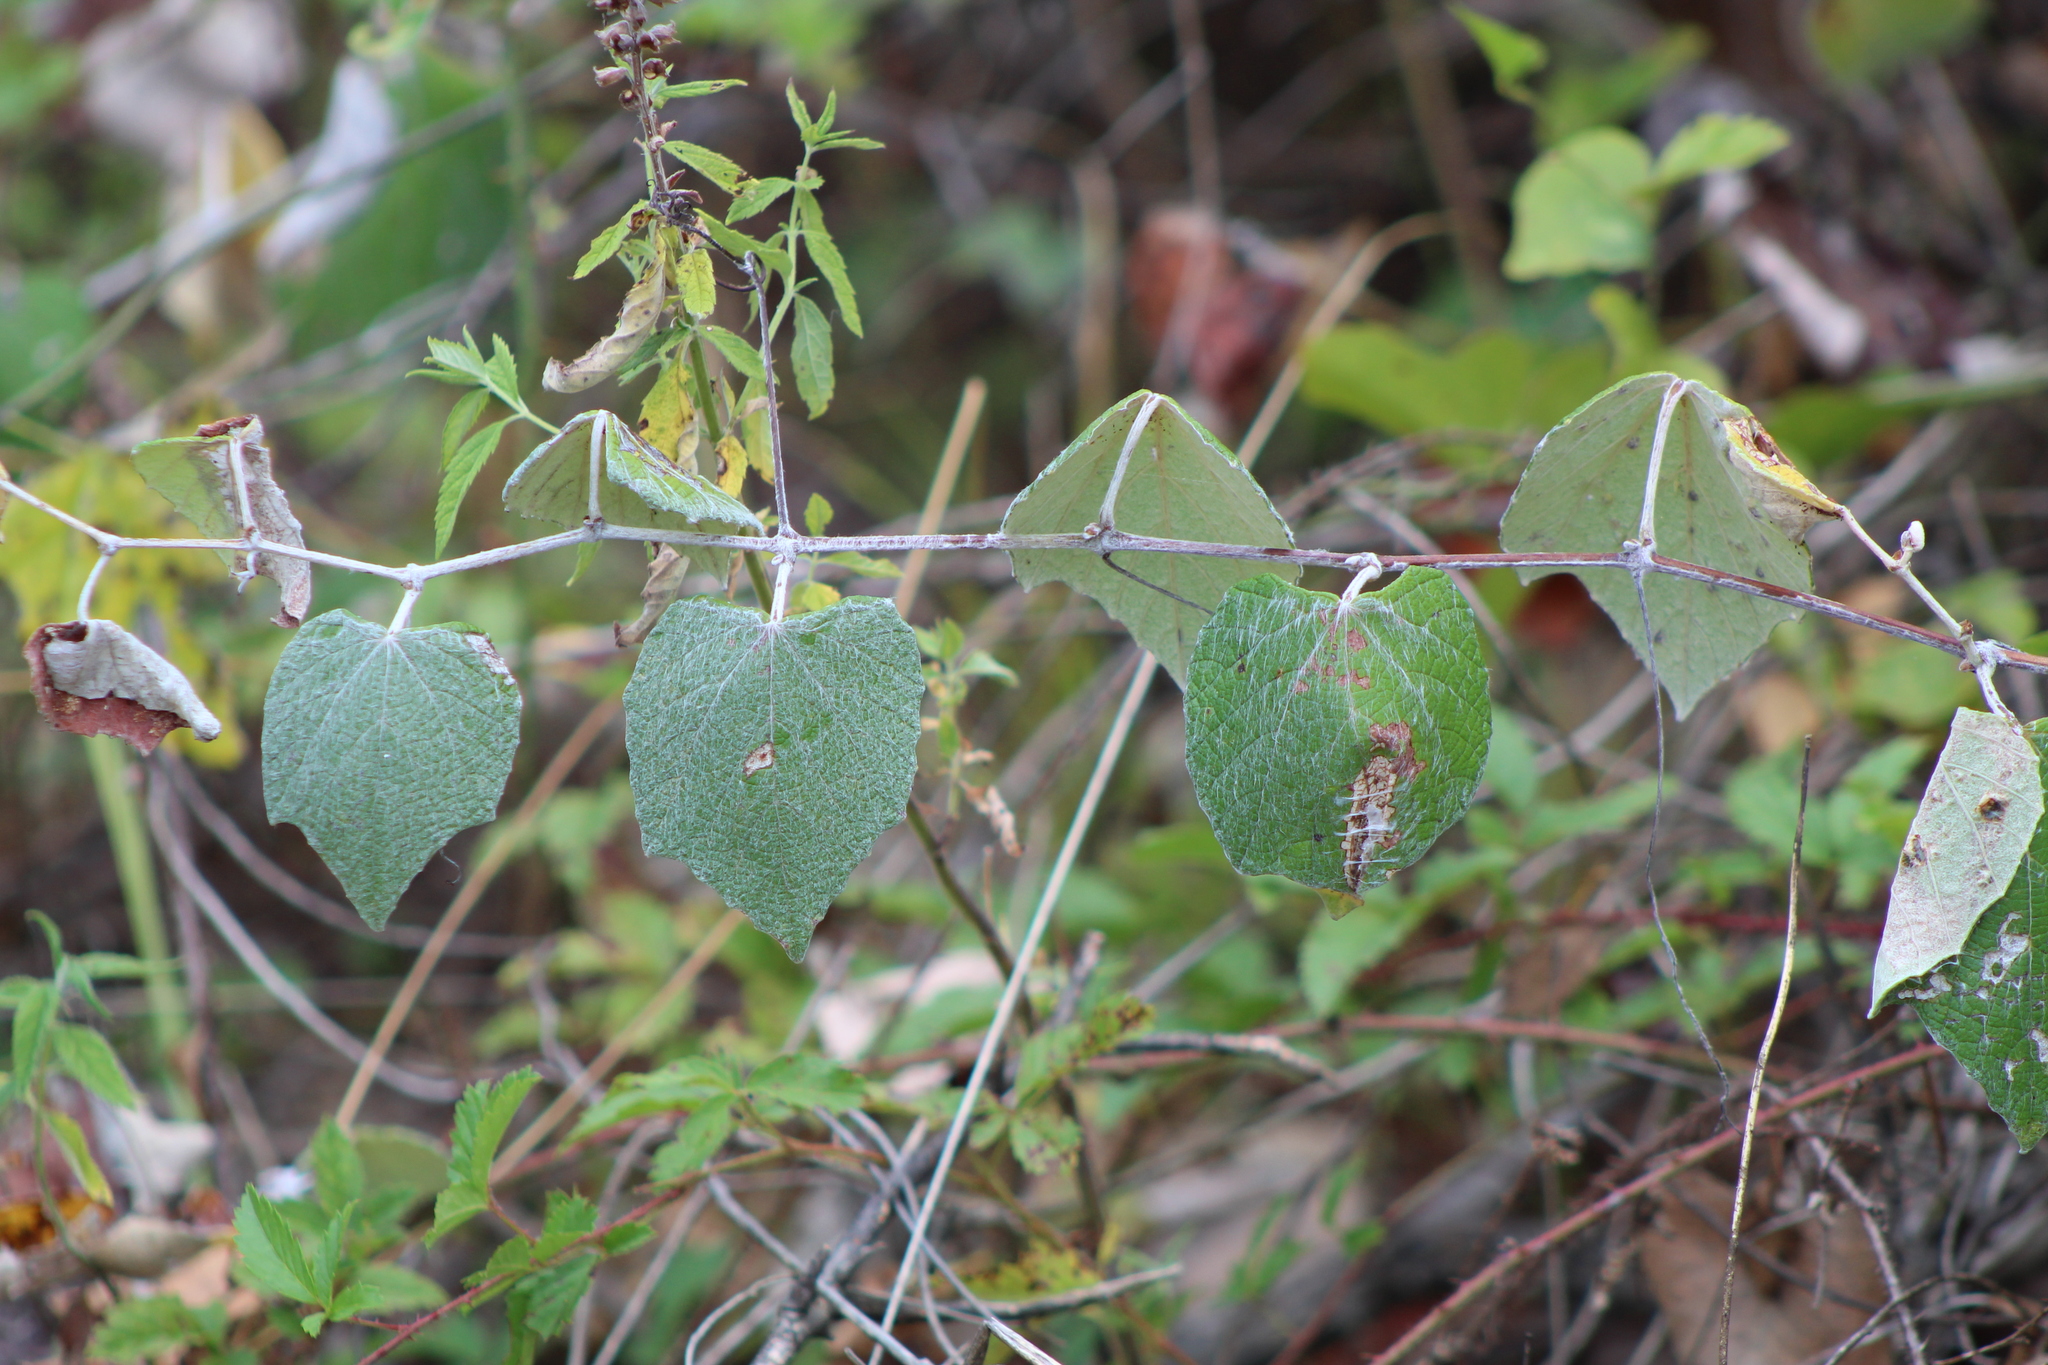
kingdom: Plantae
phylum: Tracheophyta
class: Magnoliopsida
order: Vitales
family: Vitaceae
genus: Vitis
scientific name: Vitis mustangensis
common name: Mustang grape
